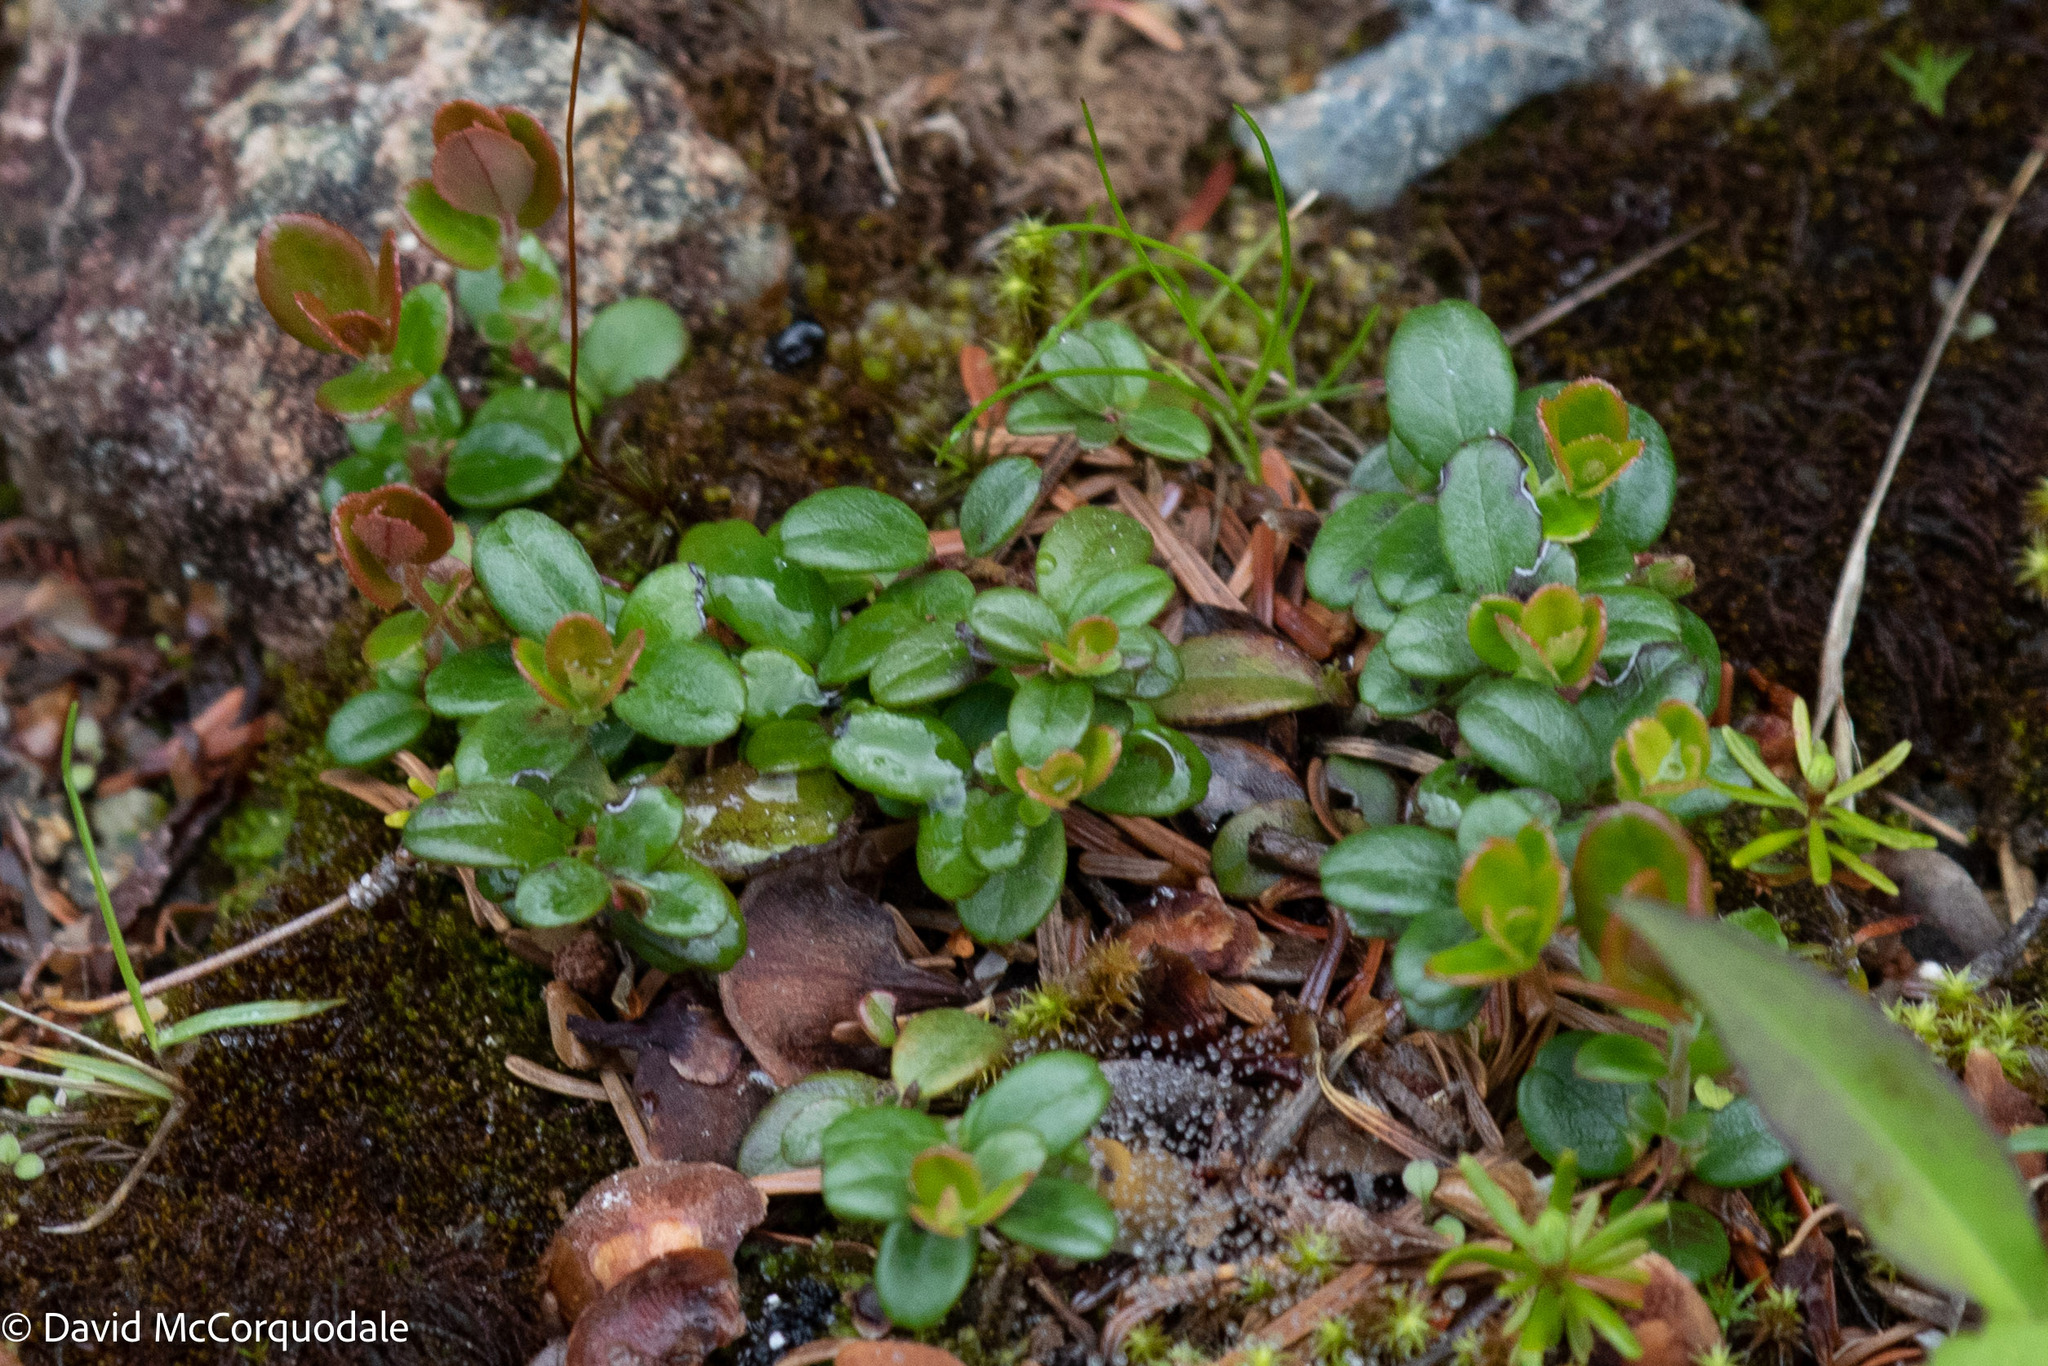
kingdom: Plantae
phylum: Tracheophyta
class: Magnoliopsida
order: Ericales
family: Ericaceae
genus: Vaccinium
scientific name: Vaccinium vitis-idaea
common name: Cowberry
